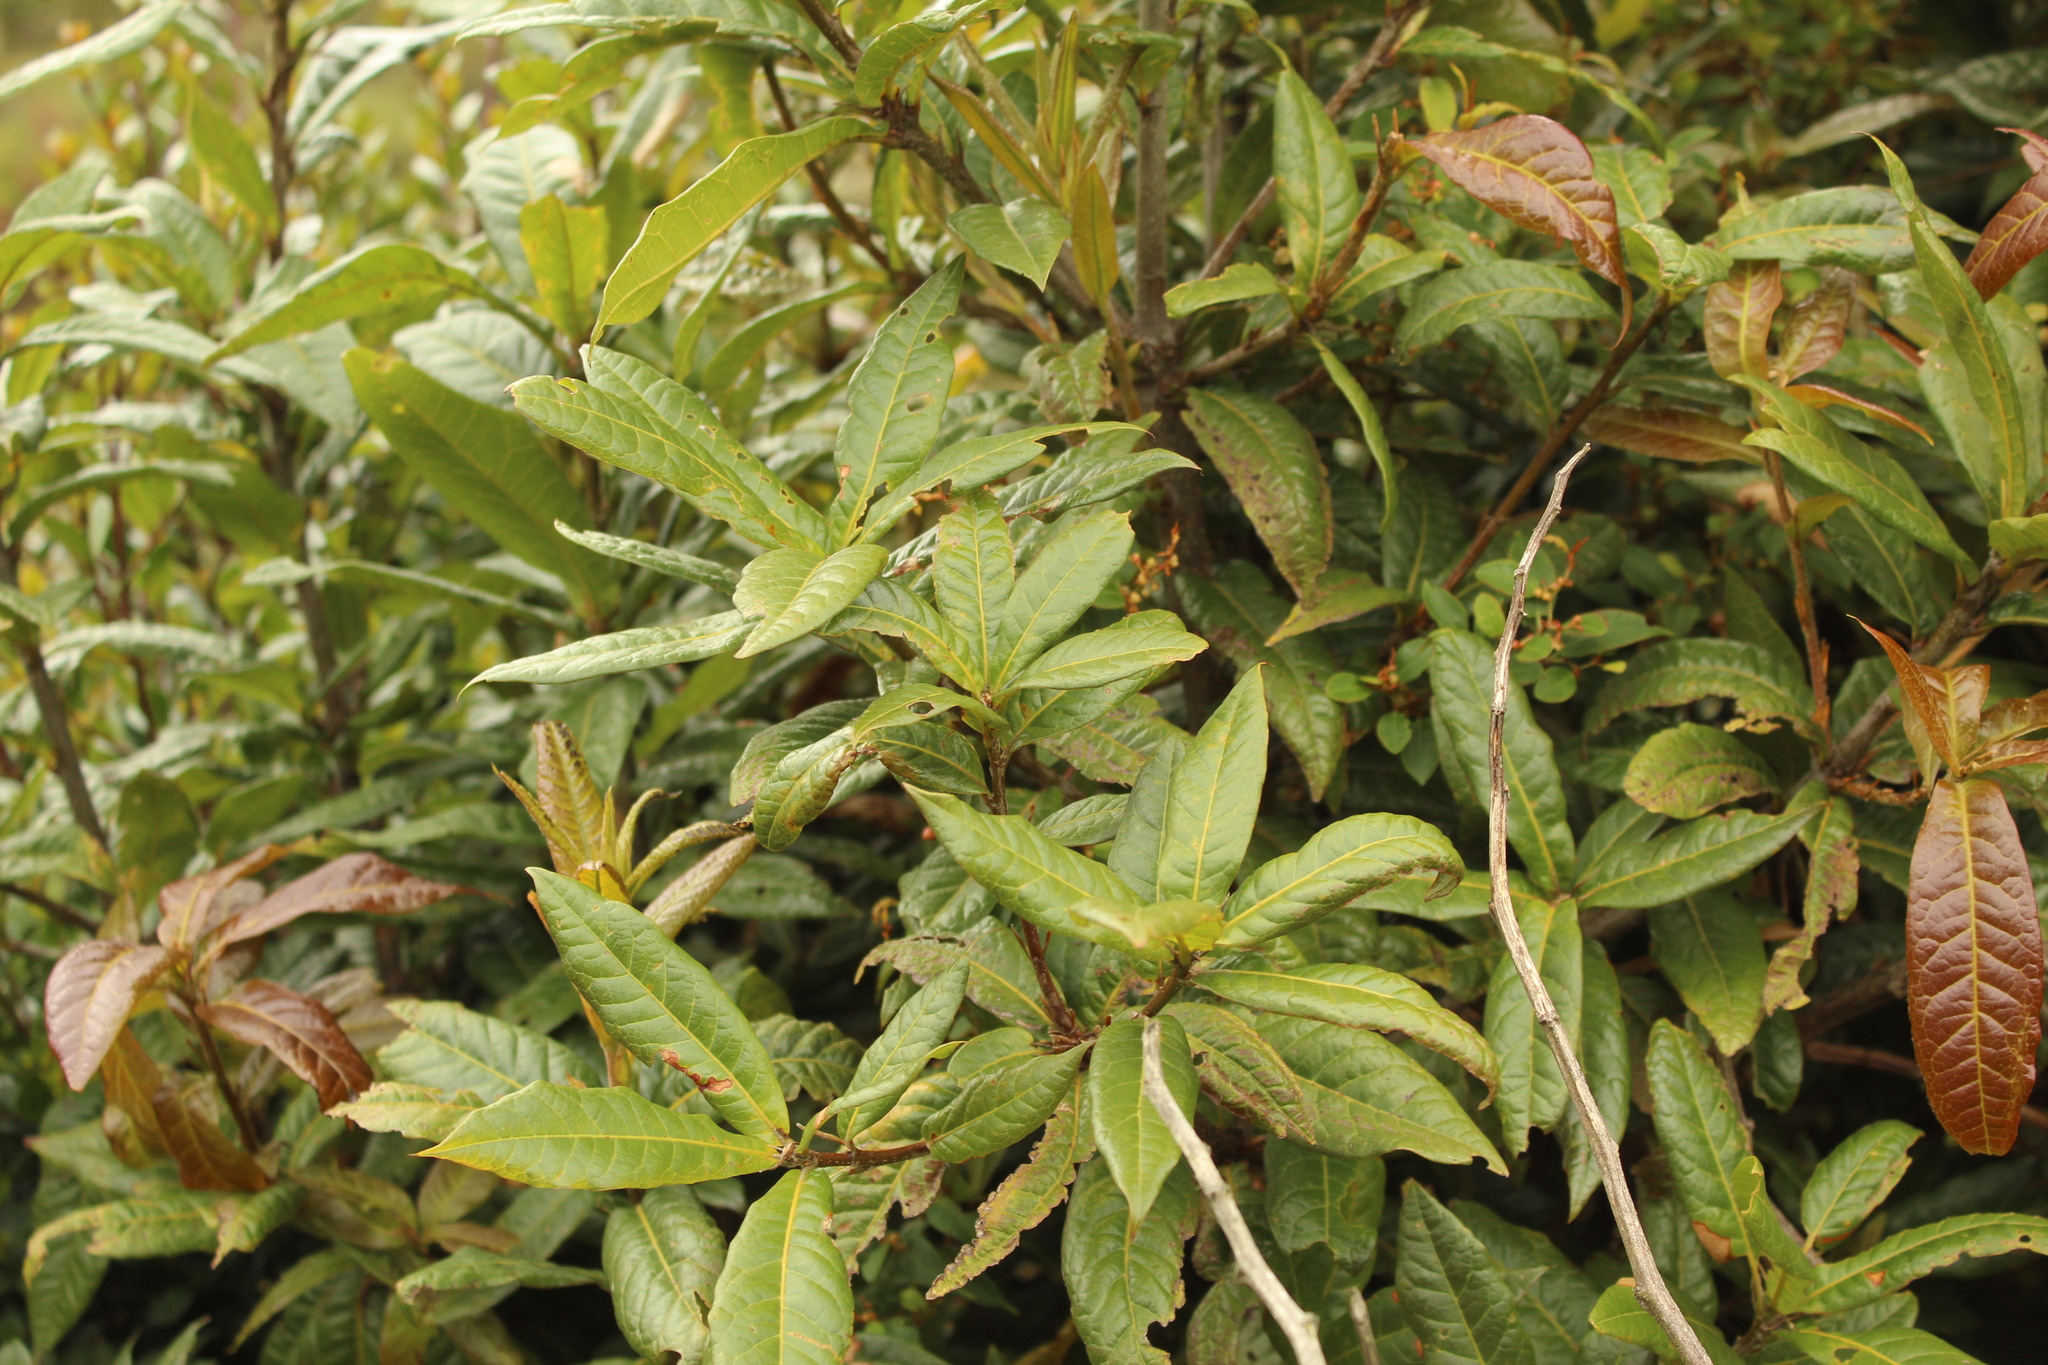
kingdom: Plantae
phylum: Tracheophyta
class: Magnoliopsida
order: Fagales
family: Fagaceae
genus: Quercus
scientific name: Quercus humboldtii
